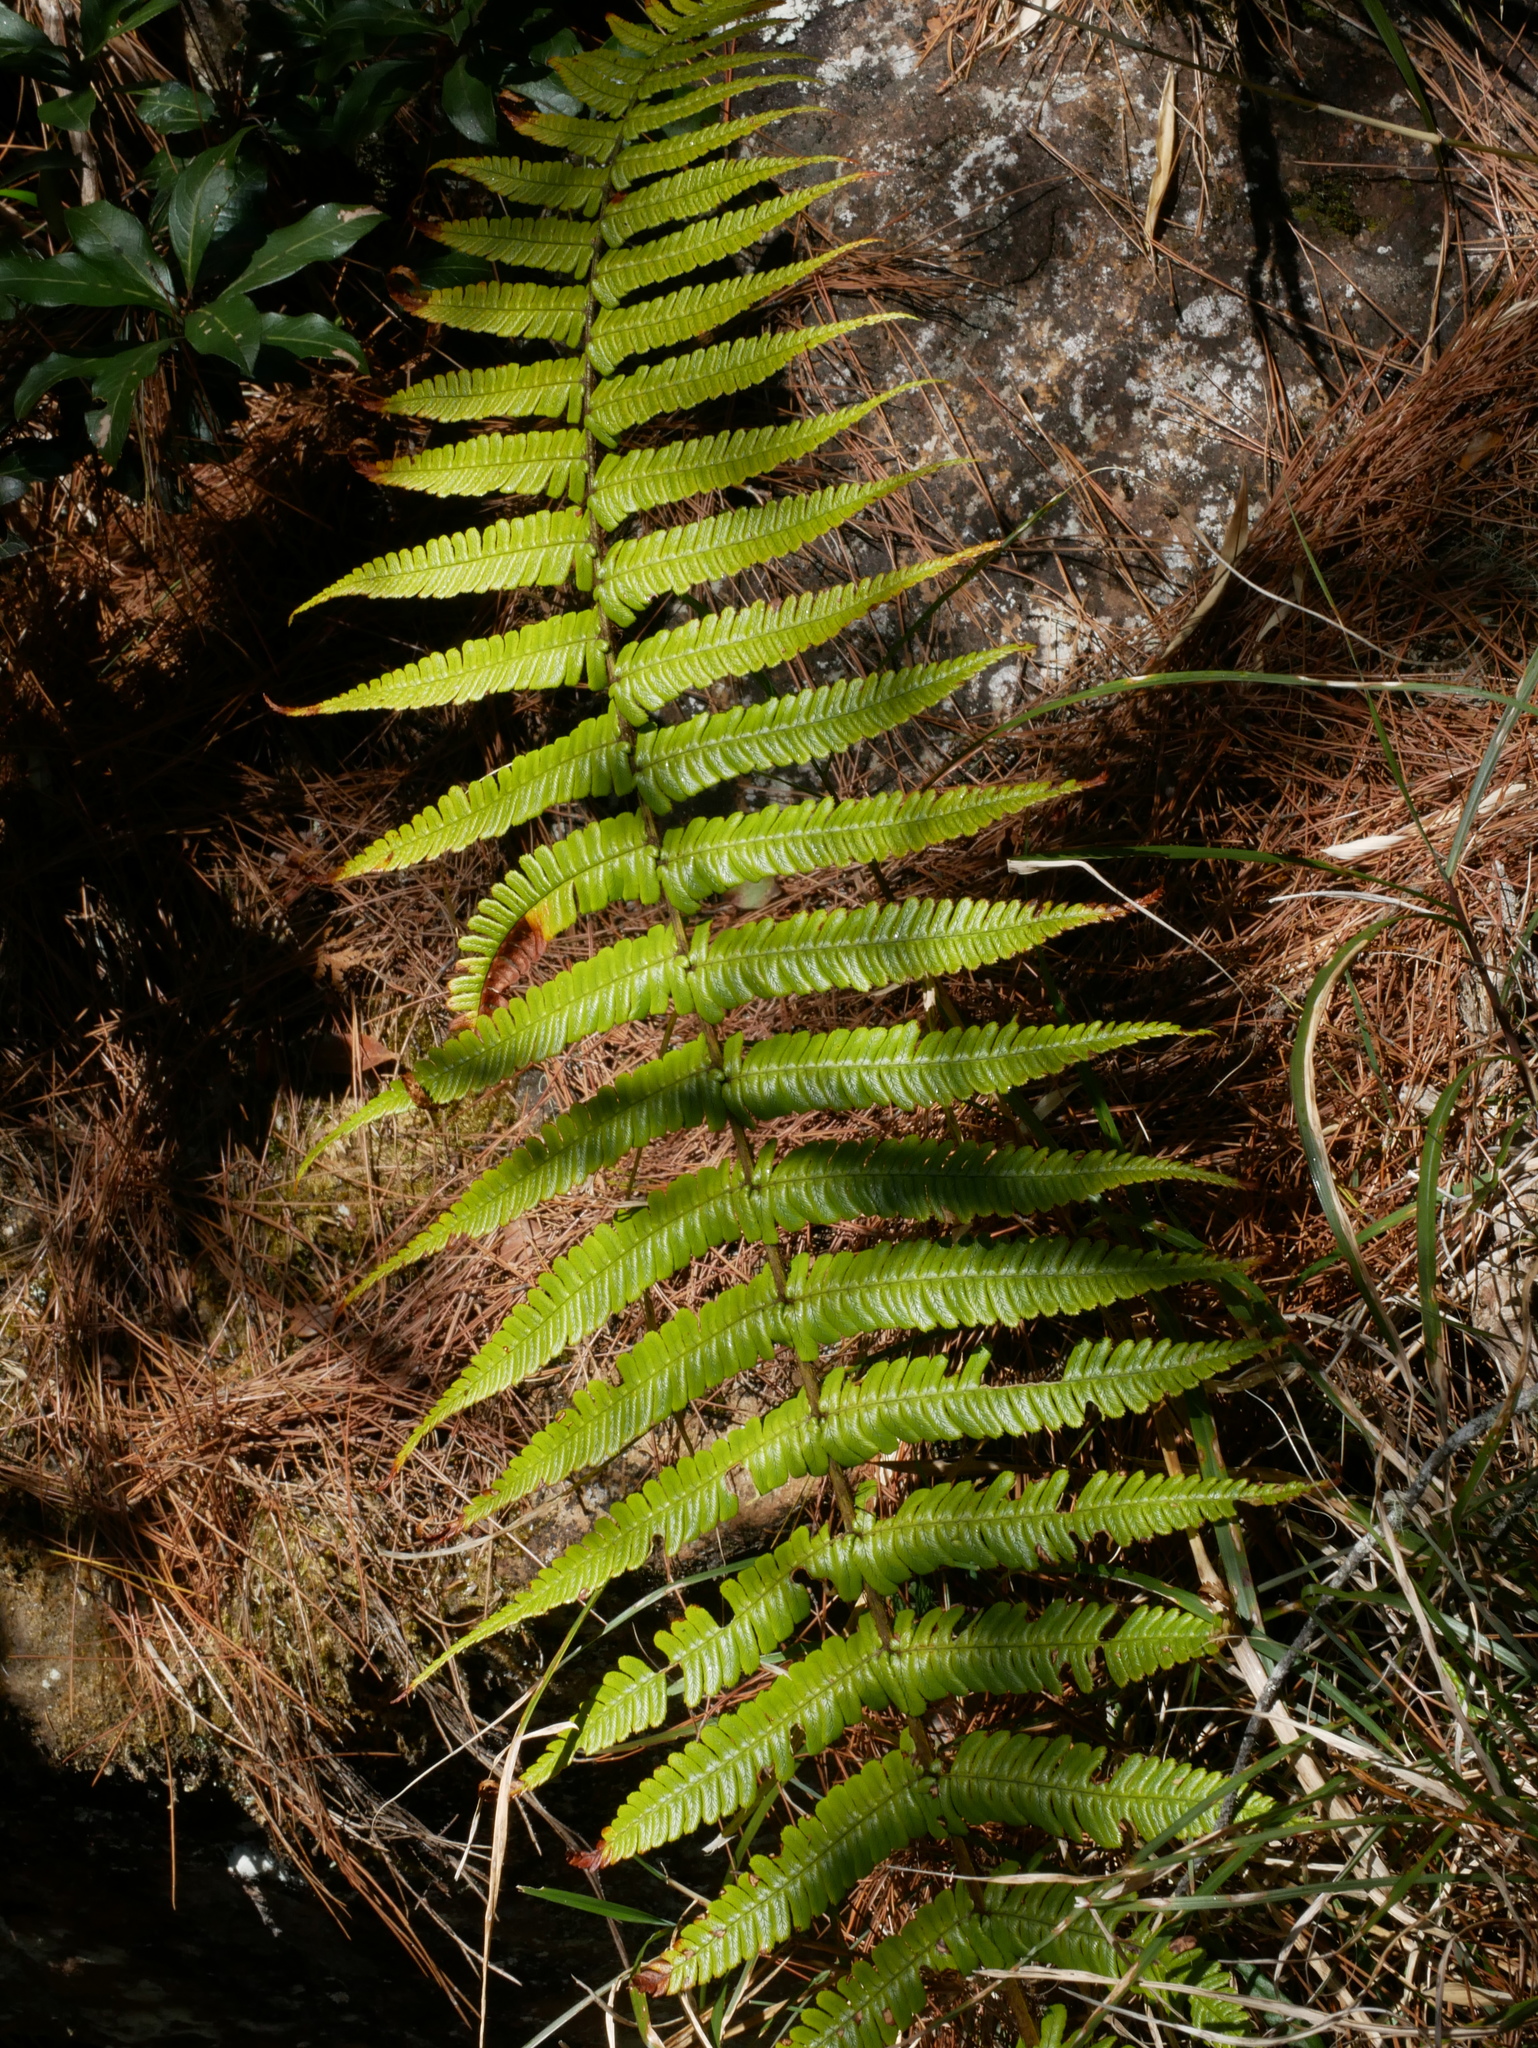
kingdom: Plantae
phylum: Tracheophyta
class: Polypodiopsida
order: Polypodiales
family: Dryopteridaceae
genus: Dryopteris
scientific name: Dryopteris wallichiana
